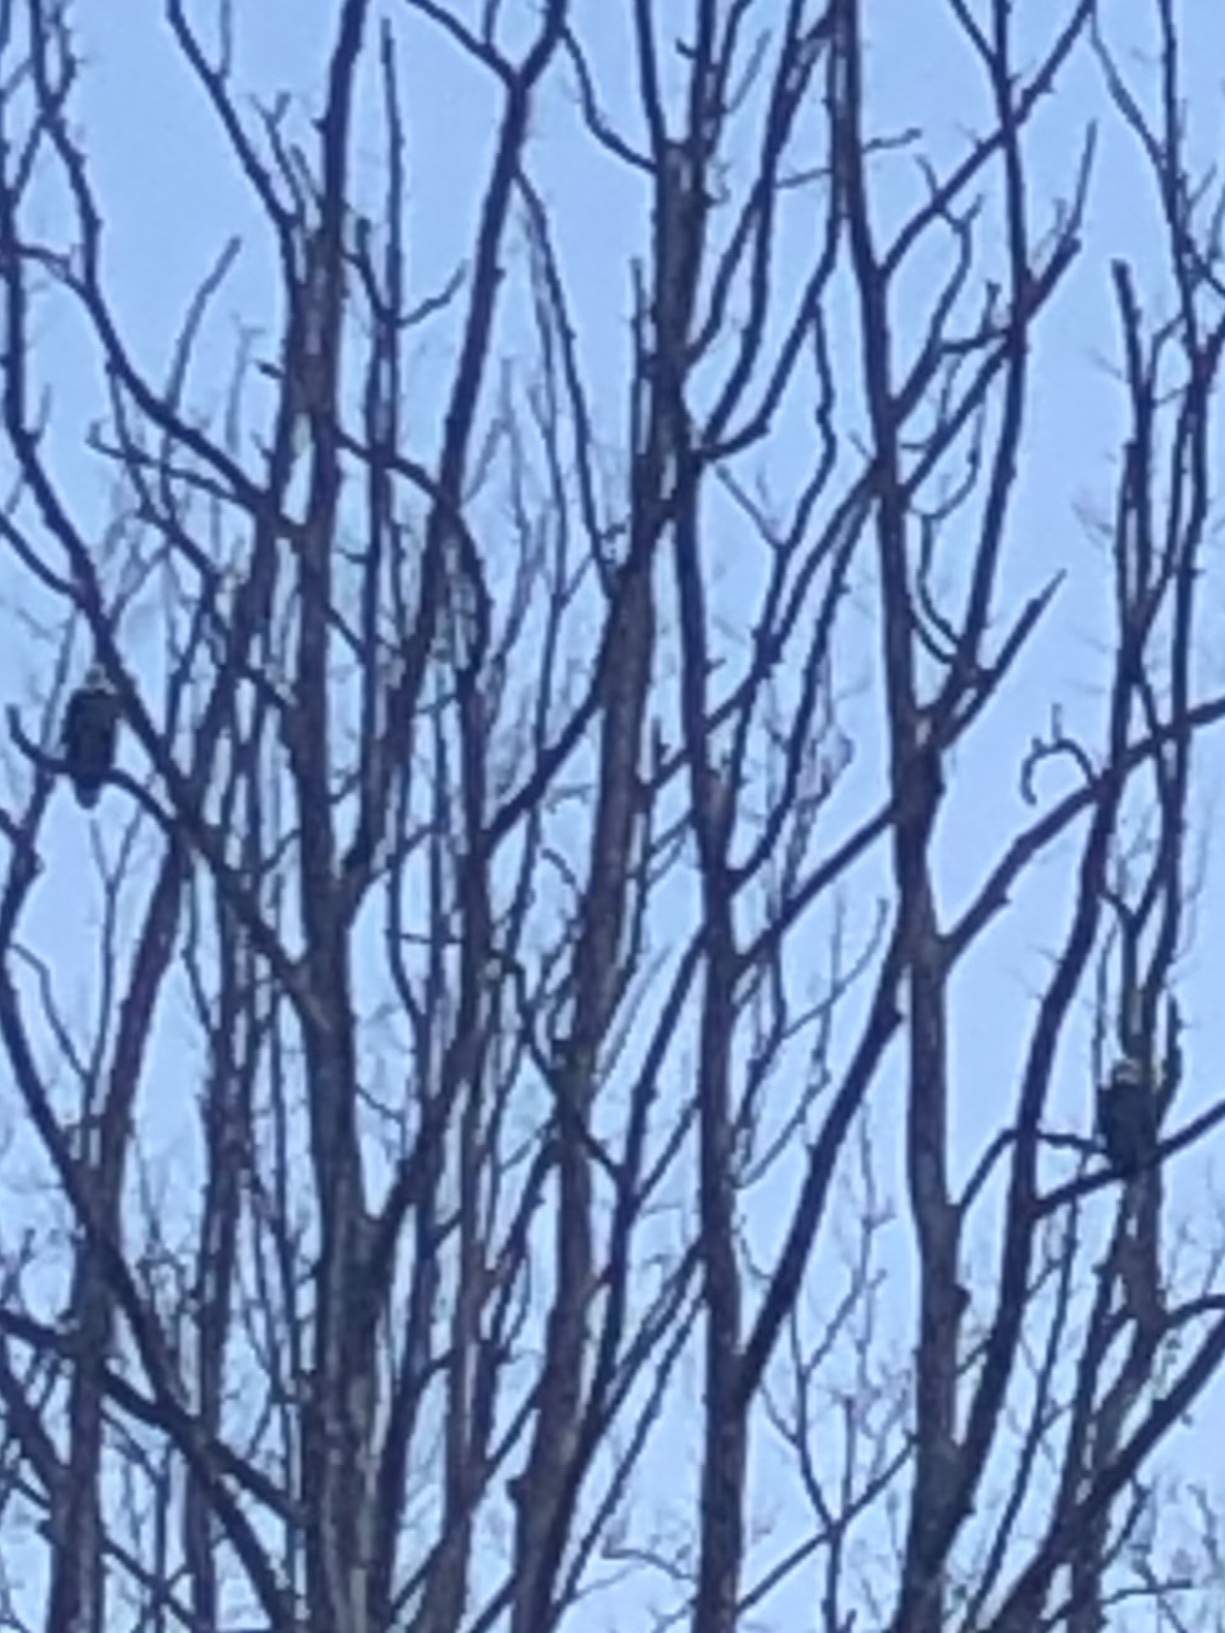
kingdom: Animalia
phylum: Chordata
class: Aves
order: Accipitriformes
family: Accipitridae
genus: Haliaeetus
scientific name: Haliaeetus leucocephalus
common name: Bald eagle
